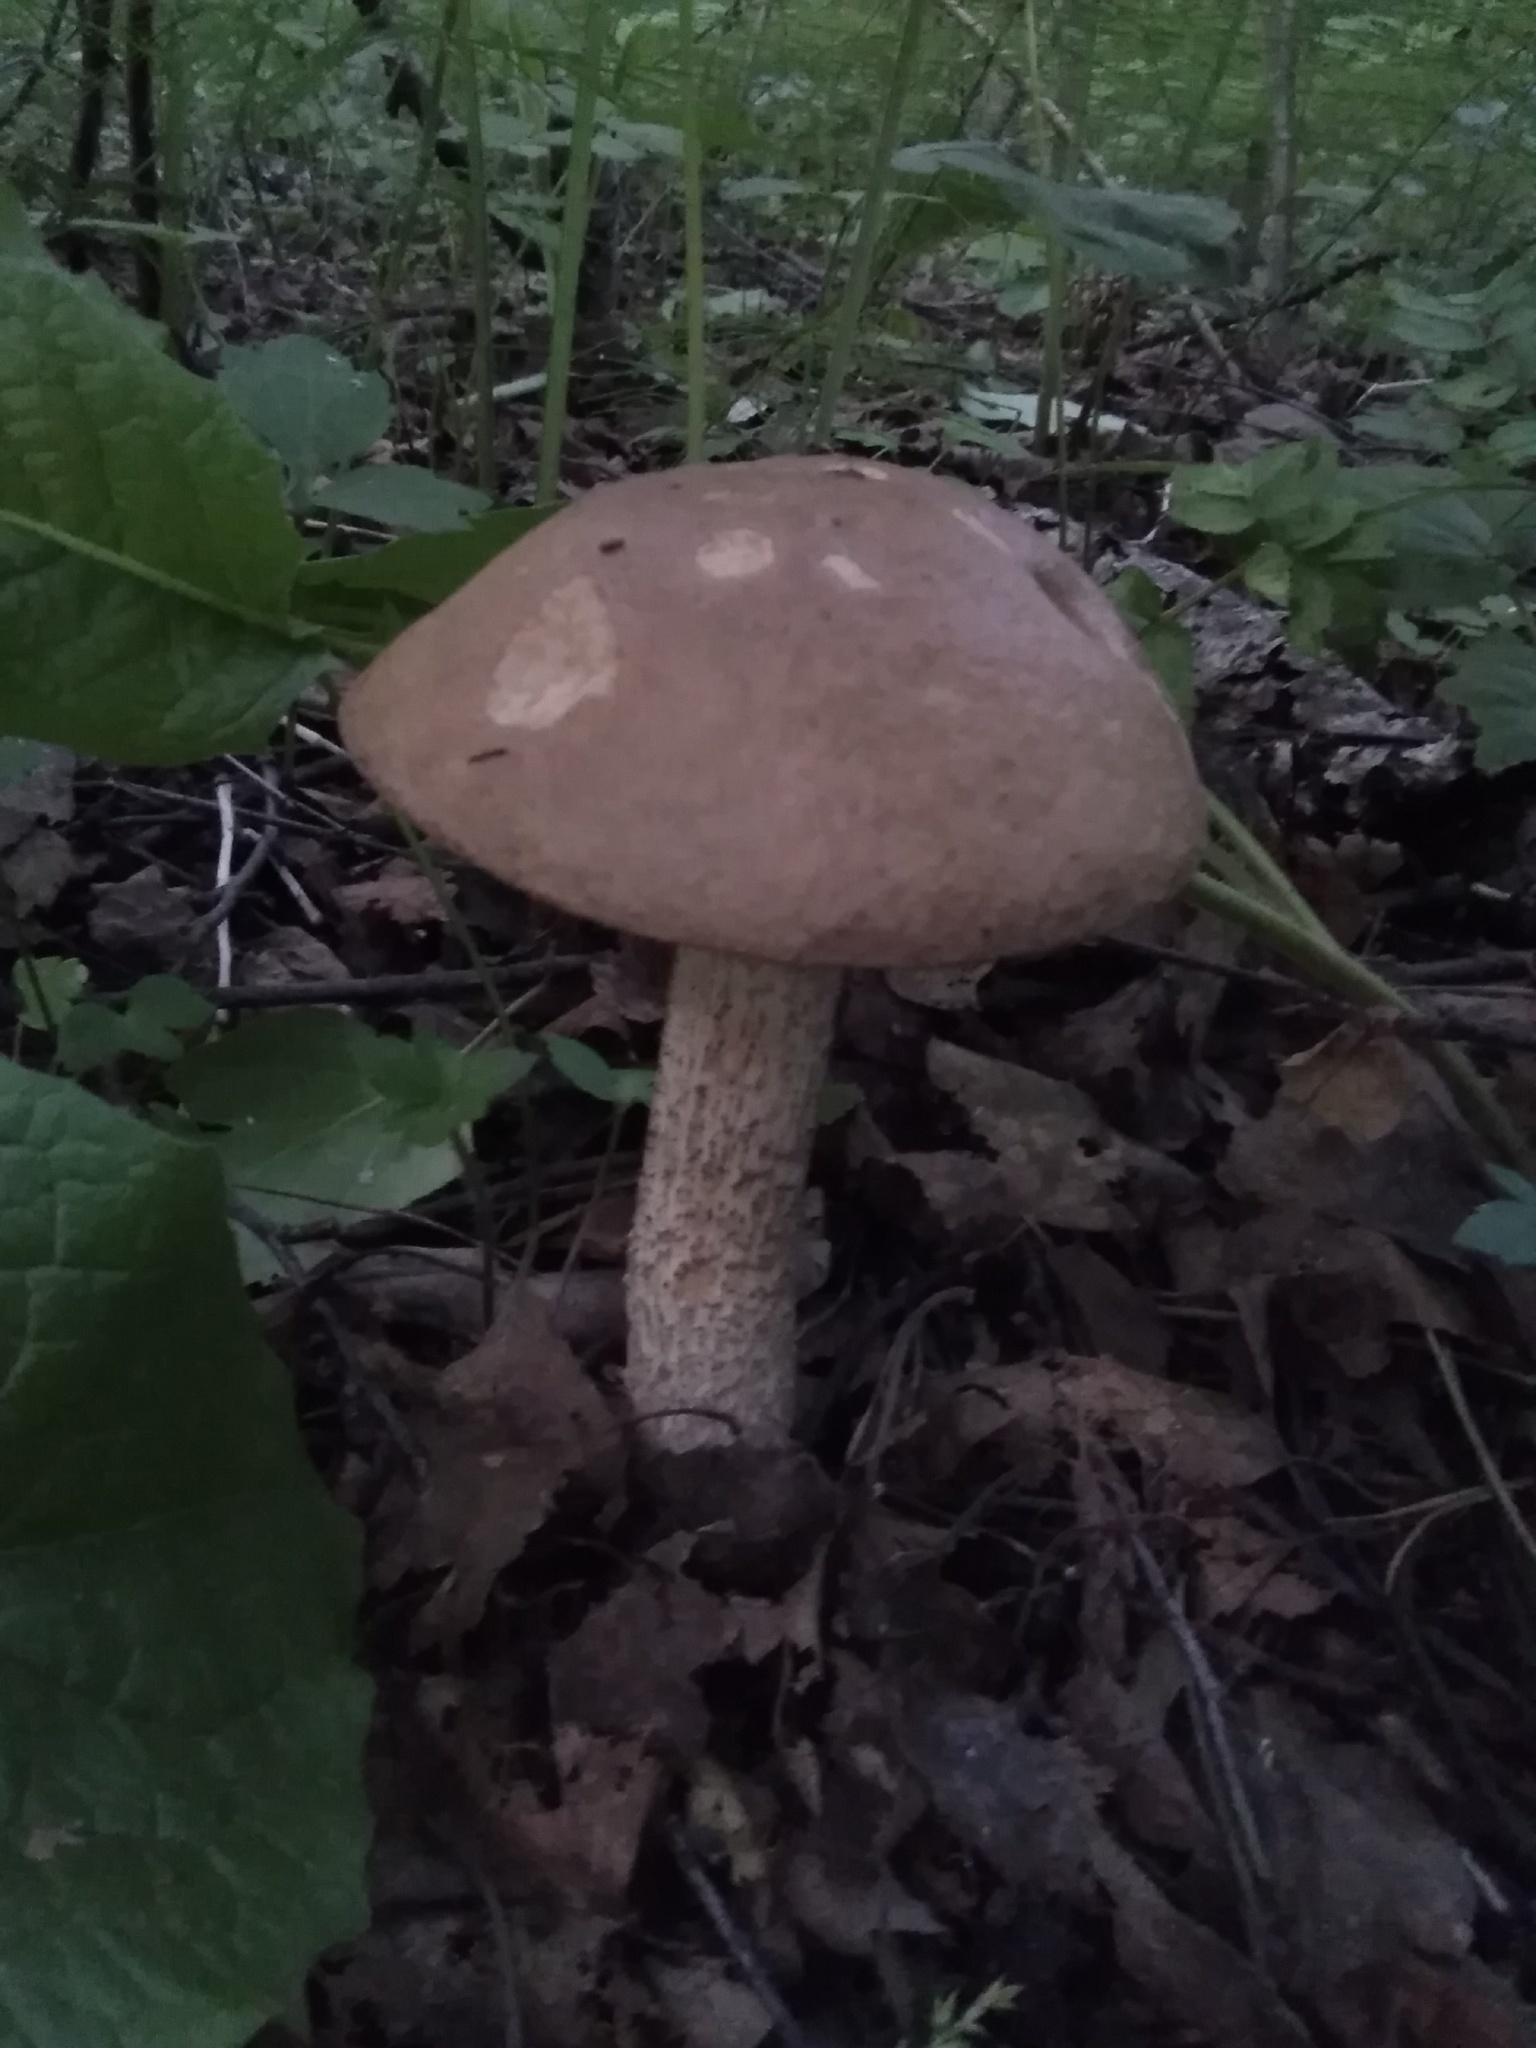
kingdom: Fungi
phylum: Basidiomycota
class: Agaricomycetes
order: Boletales
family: Boletaceae
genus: Leccinum
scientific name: Leccinum scabrum
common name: Blushing bolete
